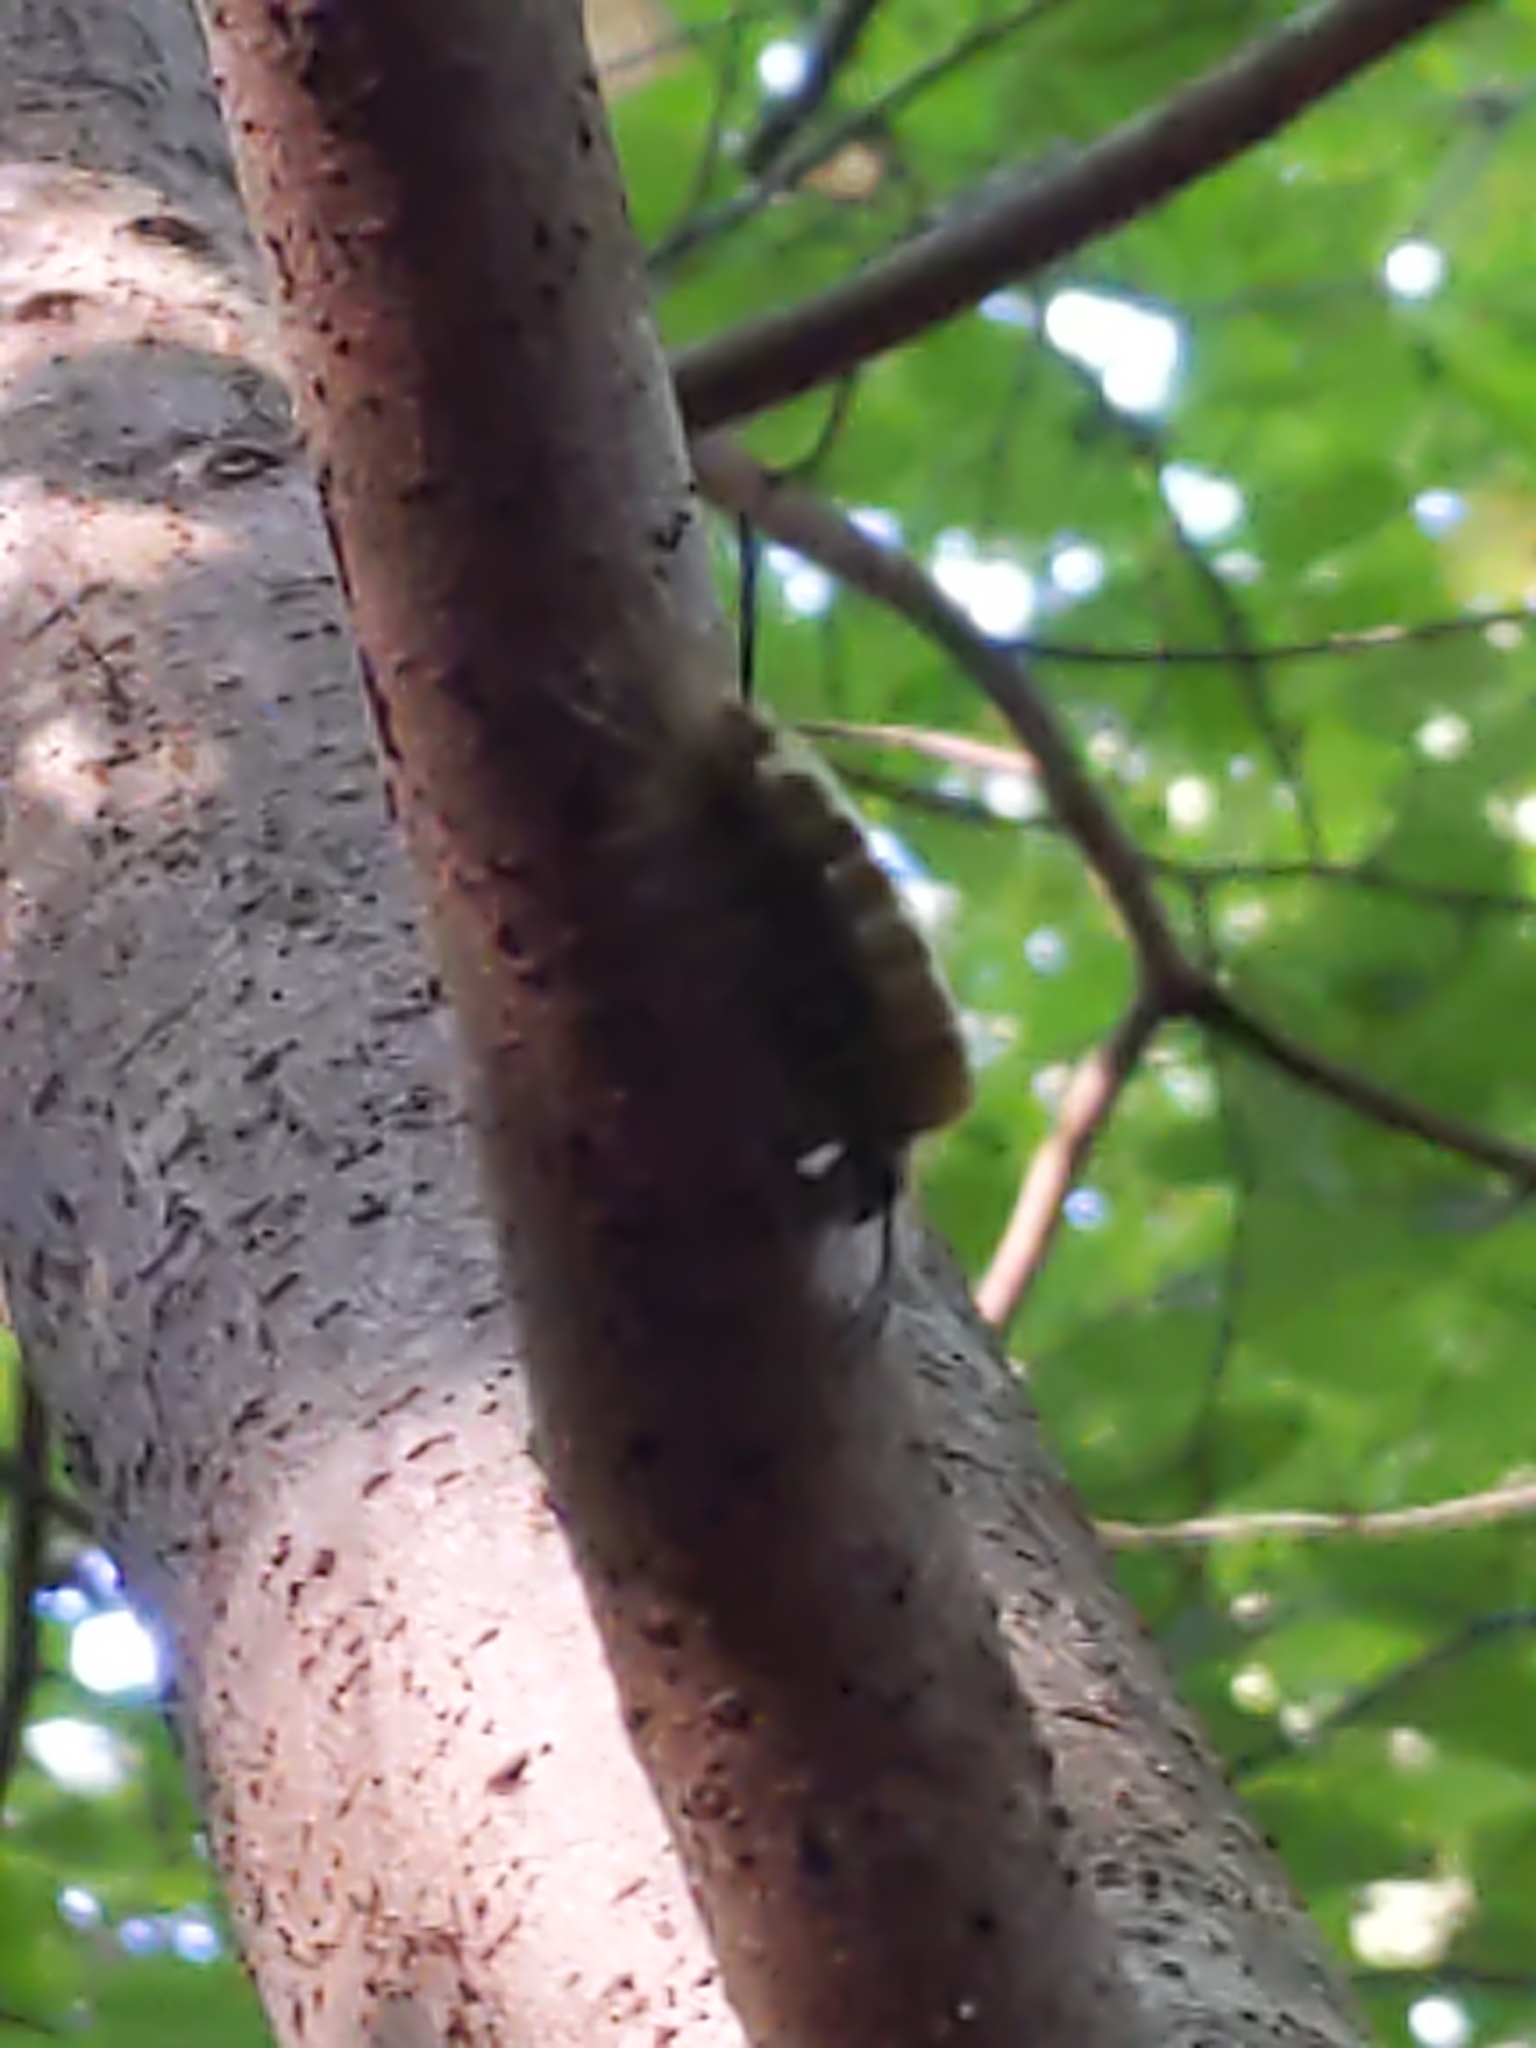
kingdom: Animalia
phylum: Arthropoda
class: Insecta
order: Lepidoptera
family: Erebidae
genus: Halysidota
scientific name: Halysidota tessellaris
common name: Banded tussock moth
